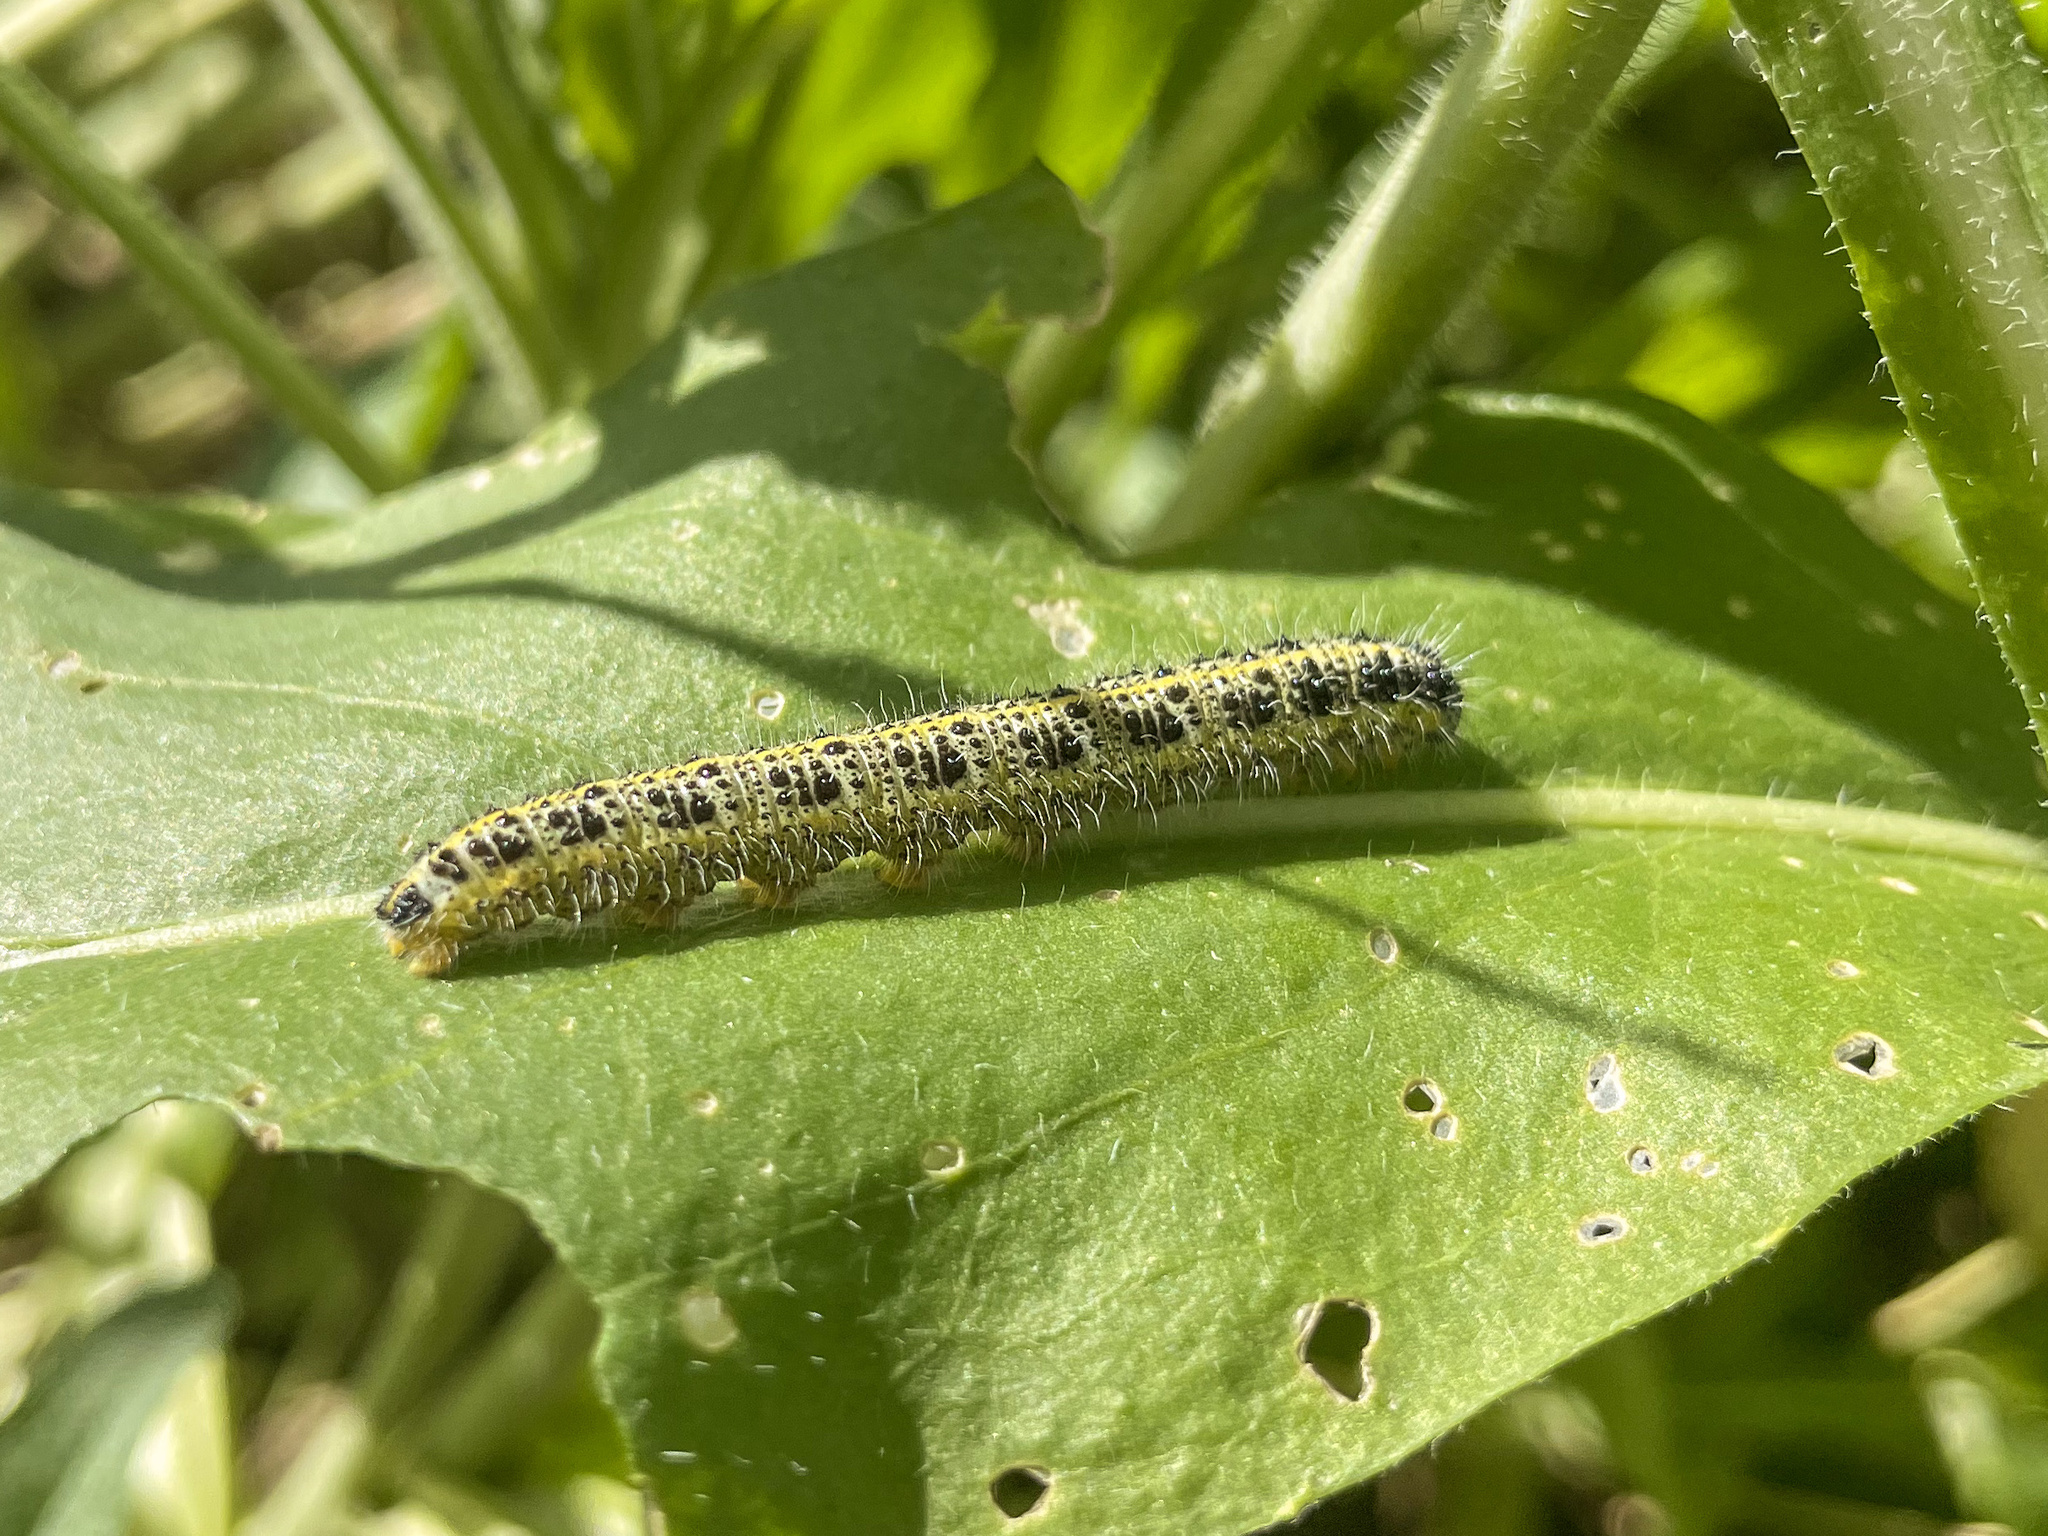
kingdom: Animalia
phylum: Arthropoda
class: Insecta
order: Lepidoptera
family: Pieridae
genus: Pieris
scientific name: Pieris brassicae
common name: Large white
